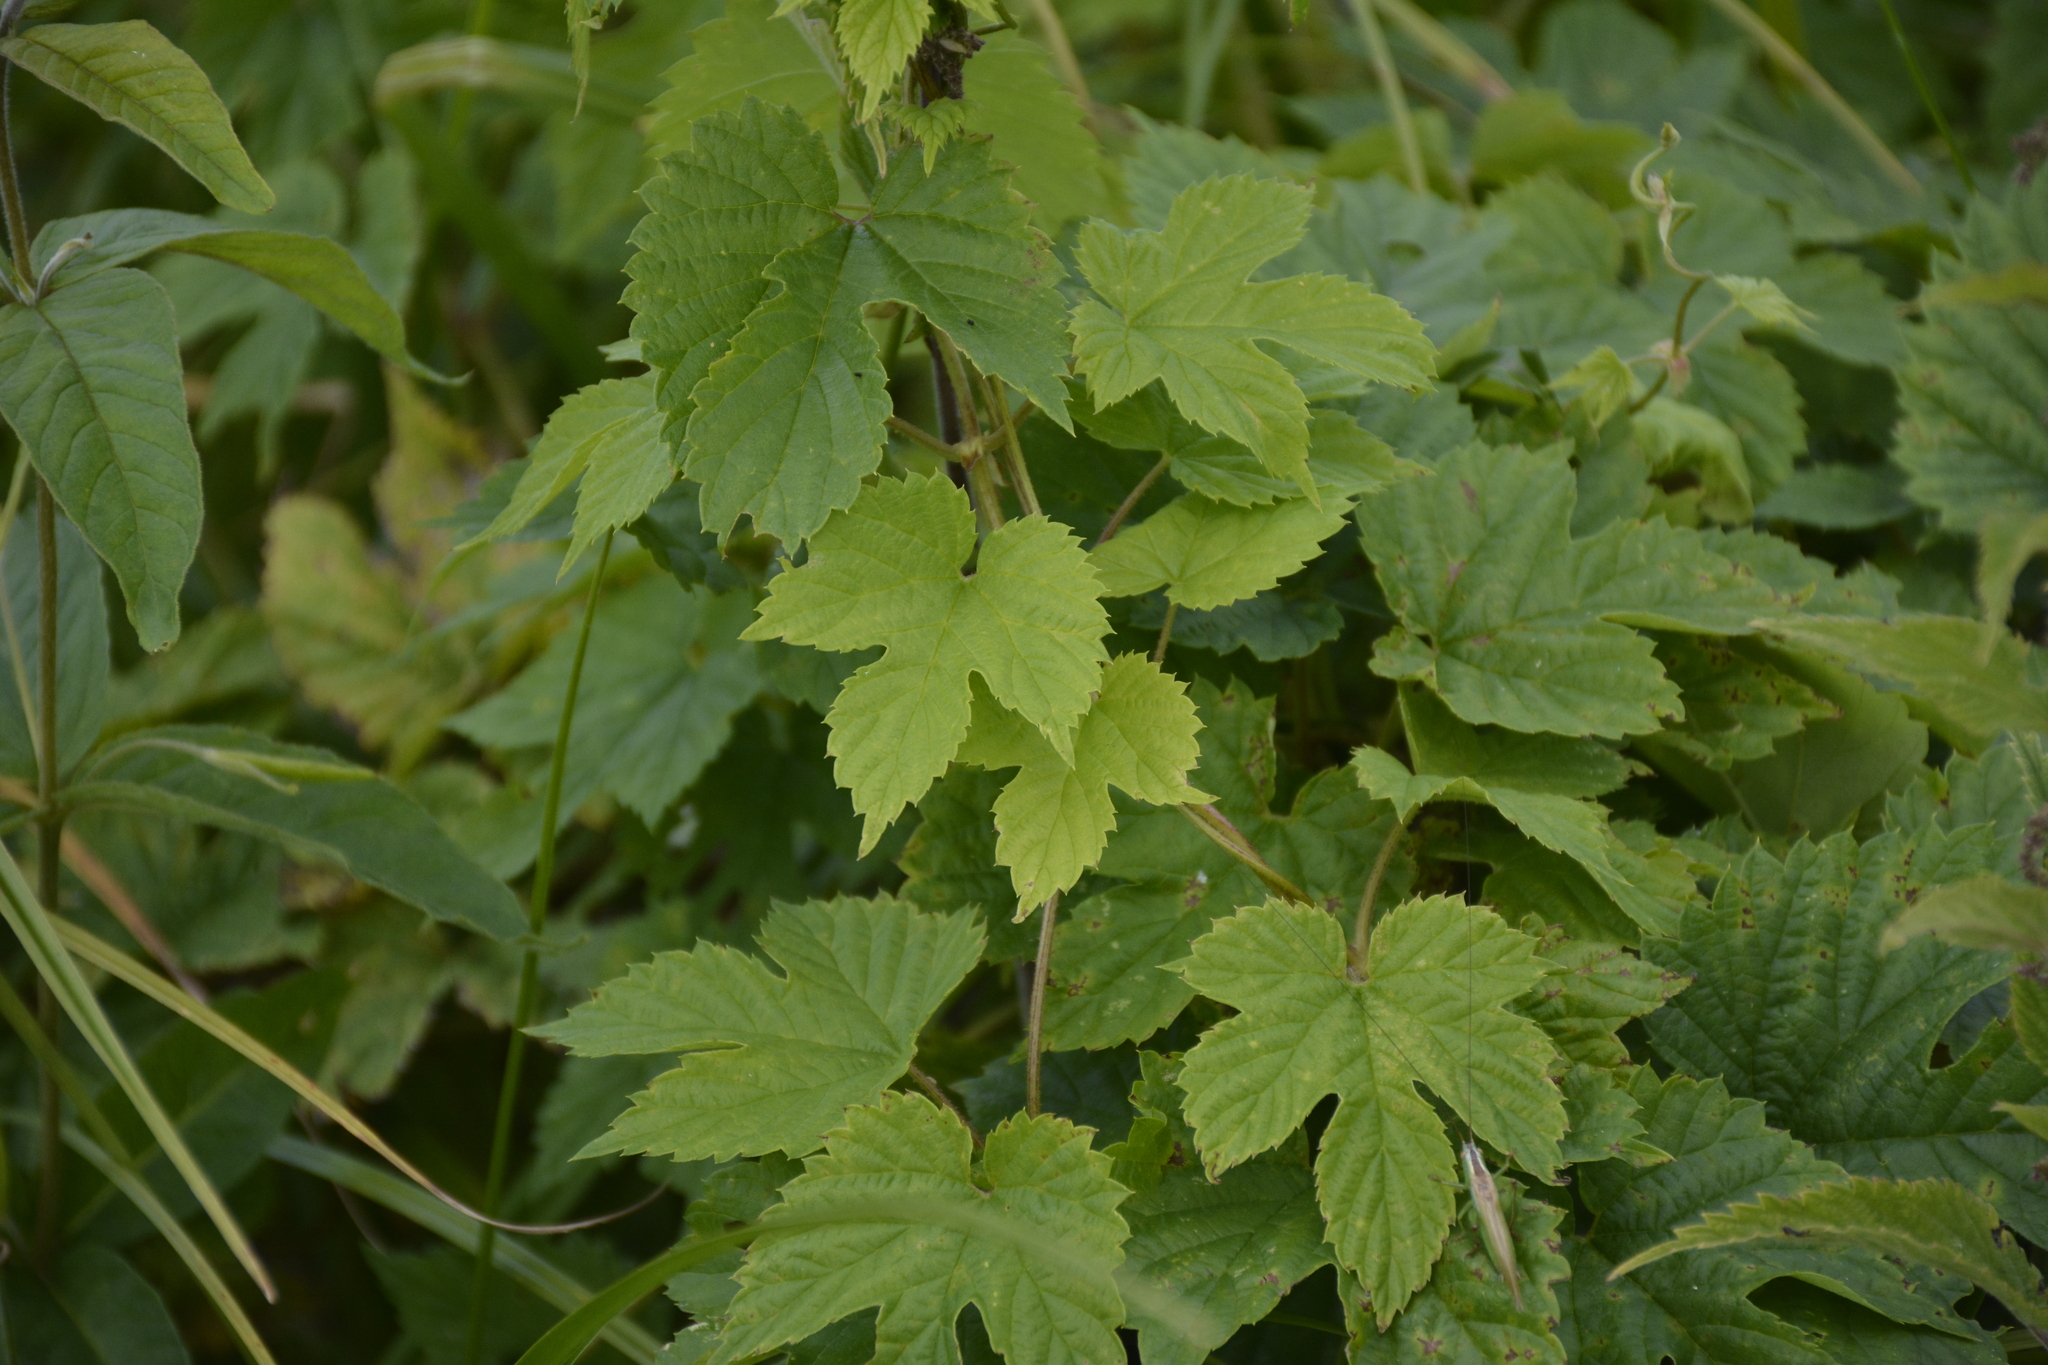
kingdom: Plantae
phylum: Tracheophyta
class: Magnoliopsida
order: Rosales
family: Cannabaceae
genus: Humulus
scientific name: Humulus lupulus
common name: Hop
